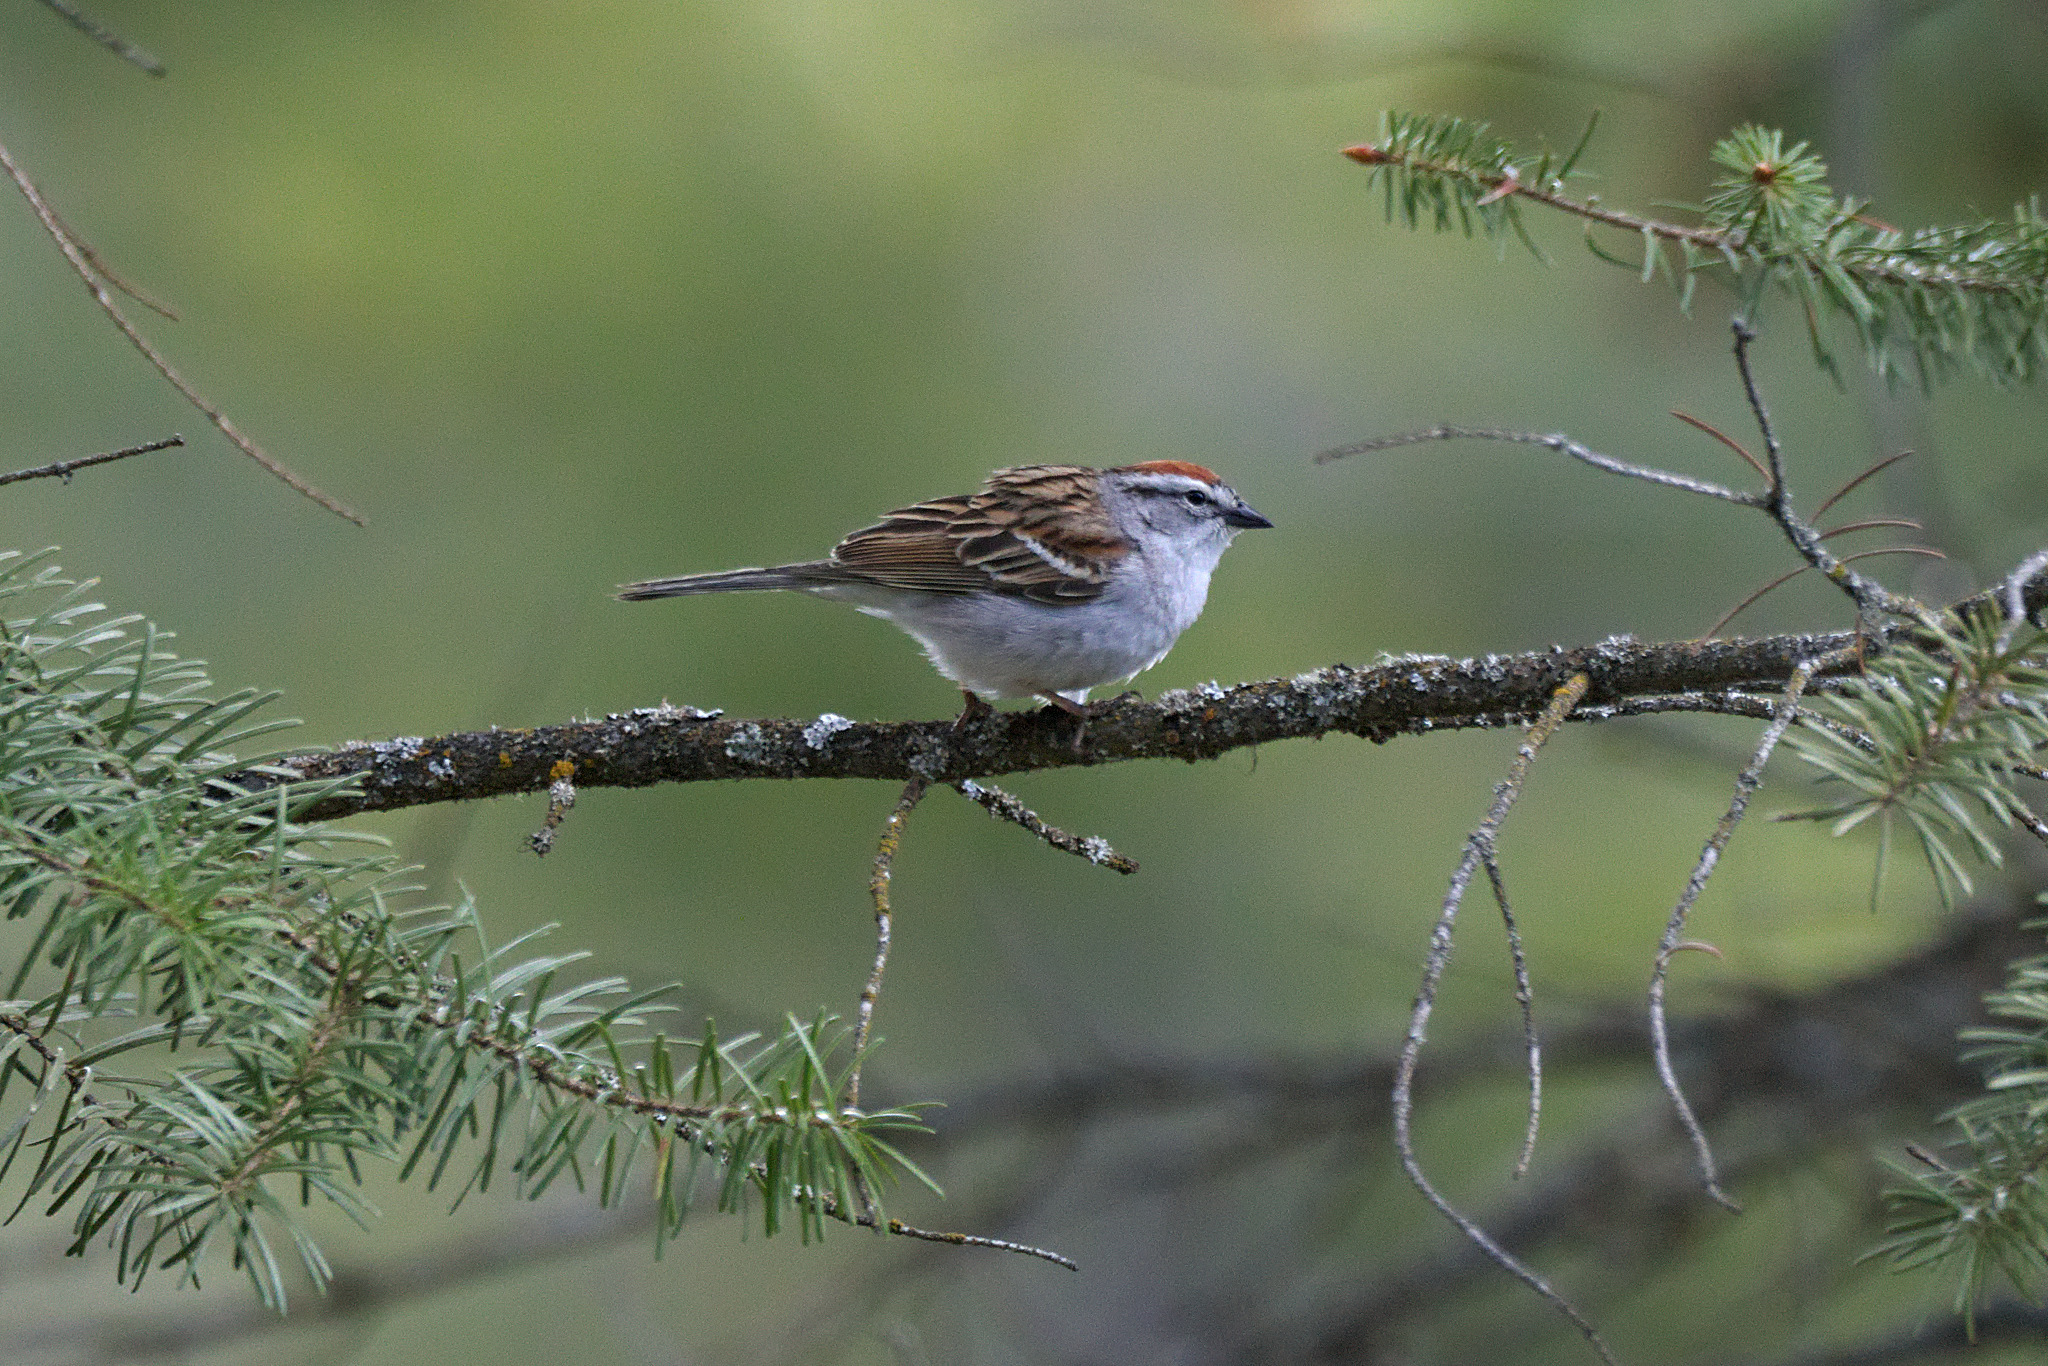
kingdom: Animalia
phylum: Chordata
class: Aves
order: Passeriformes
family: Passerellidae
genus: Spizella
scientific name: Spizella passerina
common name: Chipping sparrow
